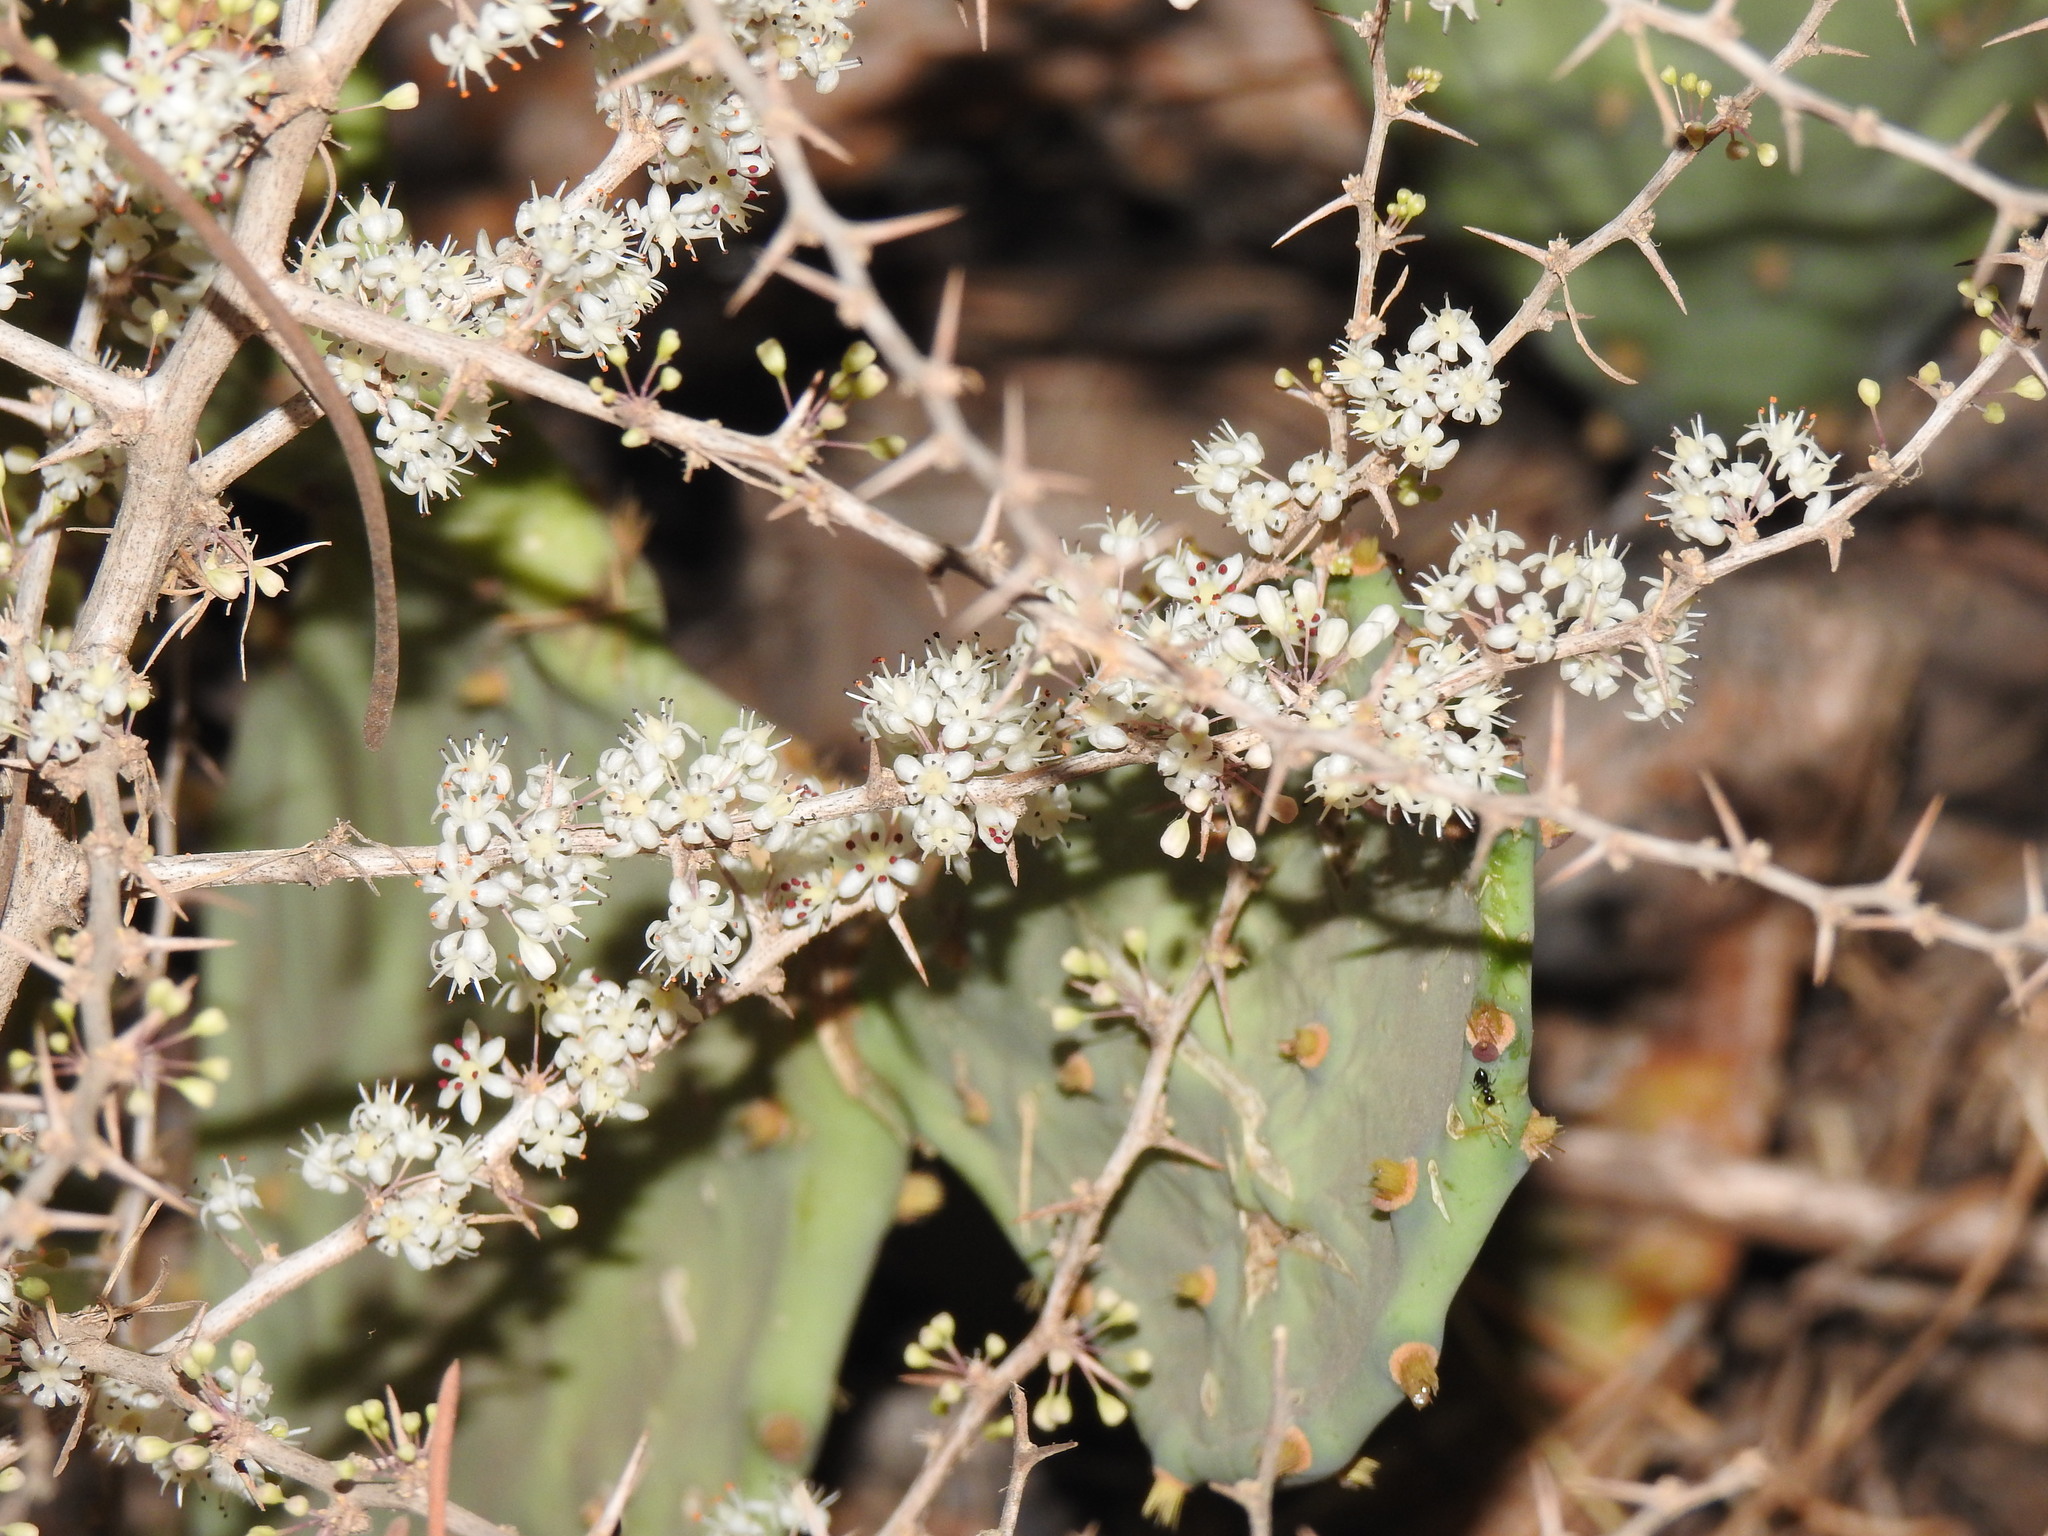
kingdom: Plantae
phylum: Tracheophyta
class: Liliopsida
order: Asparagales
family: Asparagaceae
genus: Asparagus
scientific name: Asparagus albus
